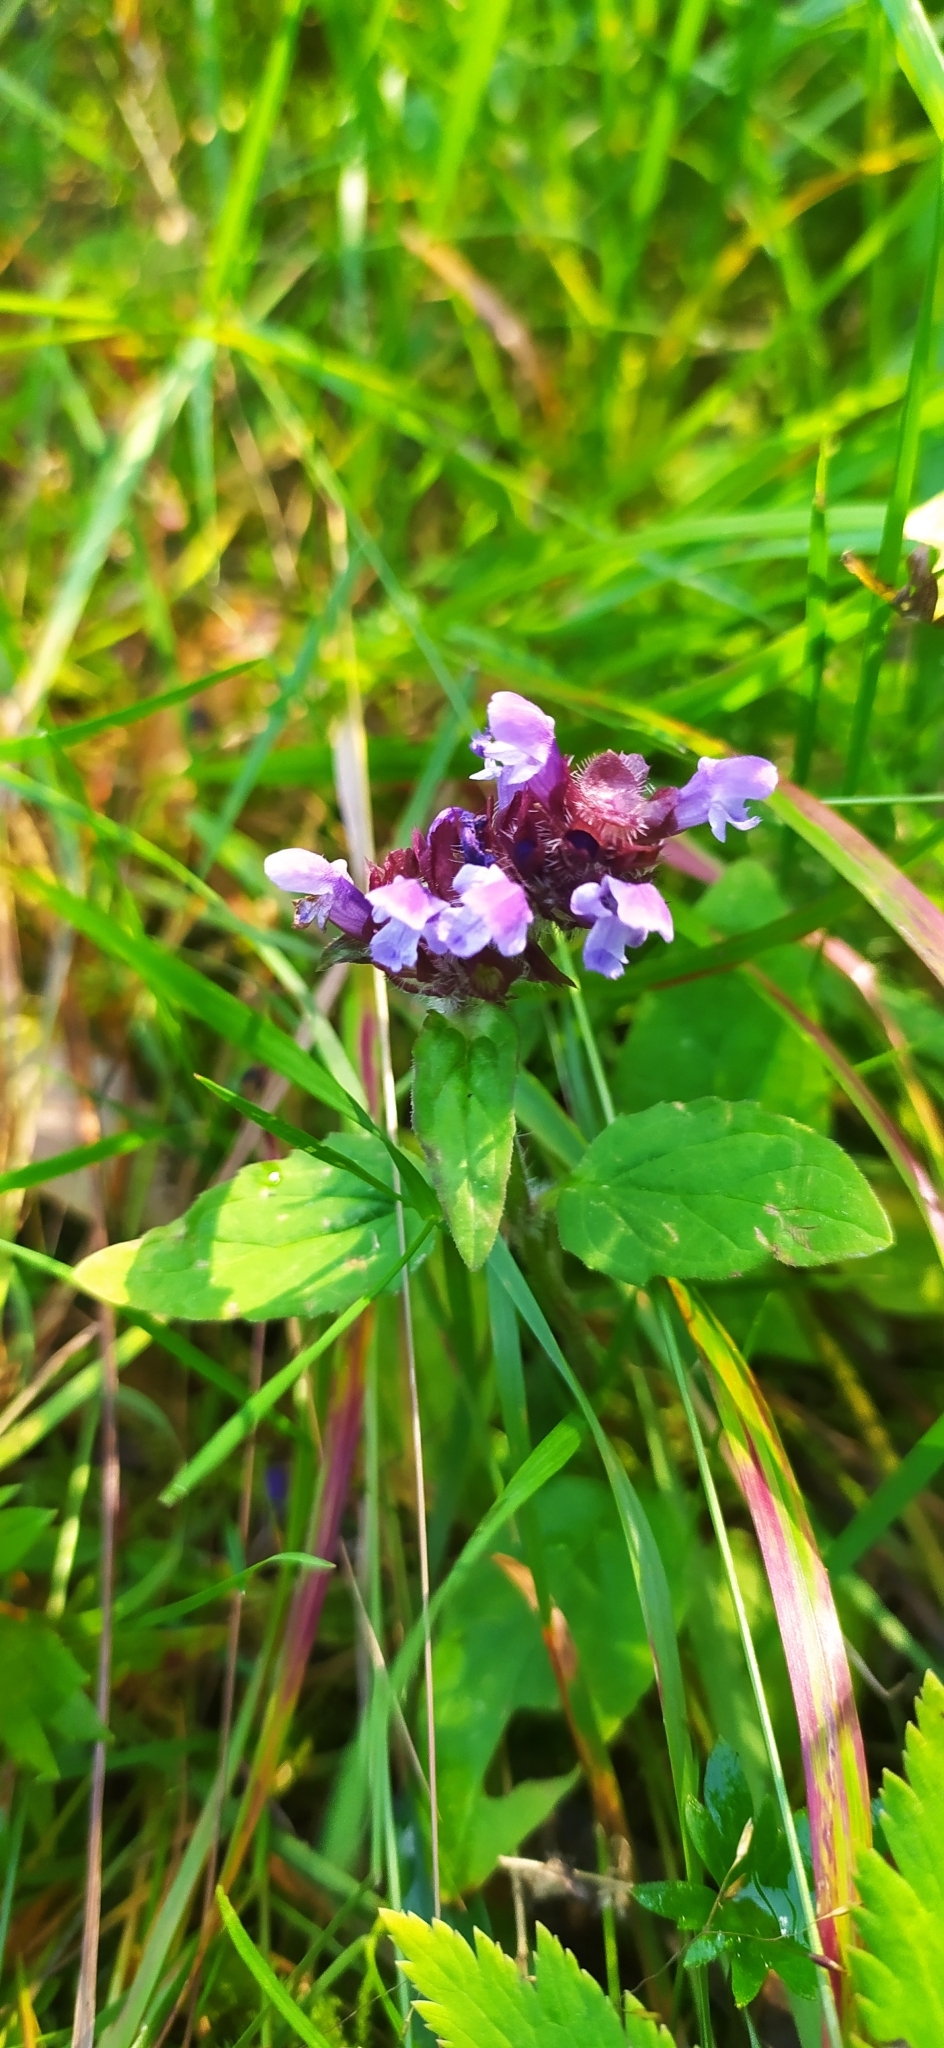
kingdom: Plantae
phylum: Tracheophyta
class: Magnoliopsida
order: Lamiales
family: Lamiaceae
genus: Prunella
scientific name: Prunella vulgaris
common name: Heal-all
